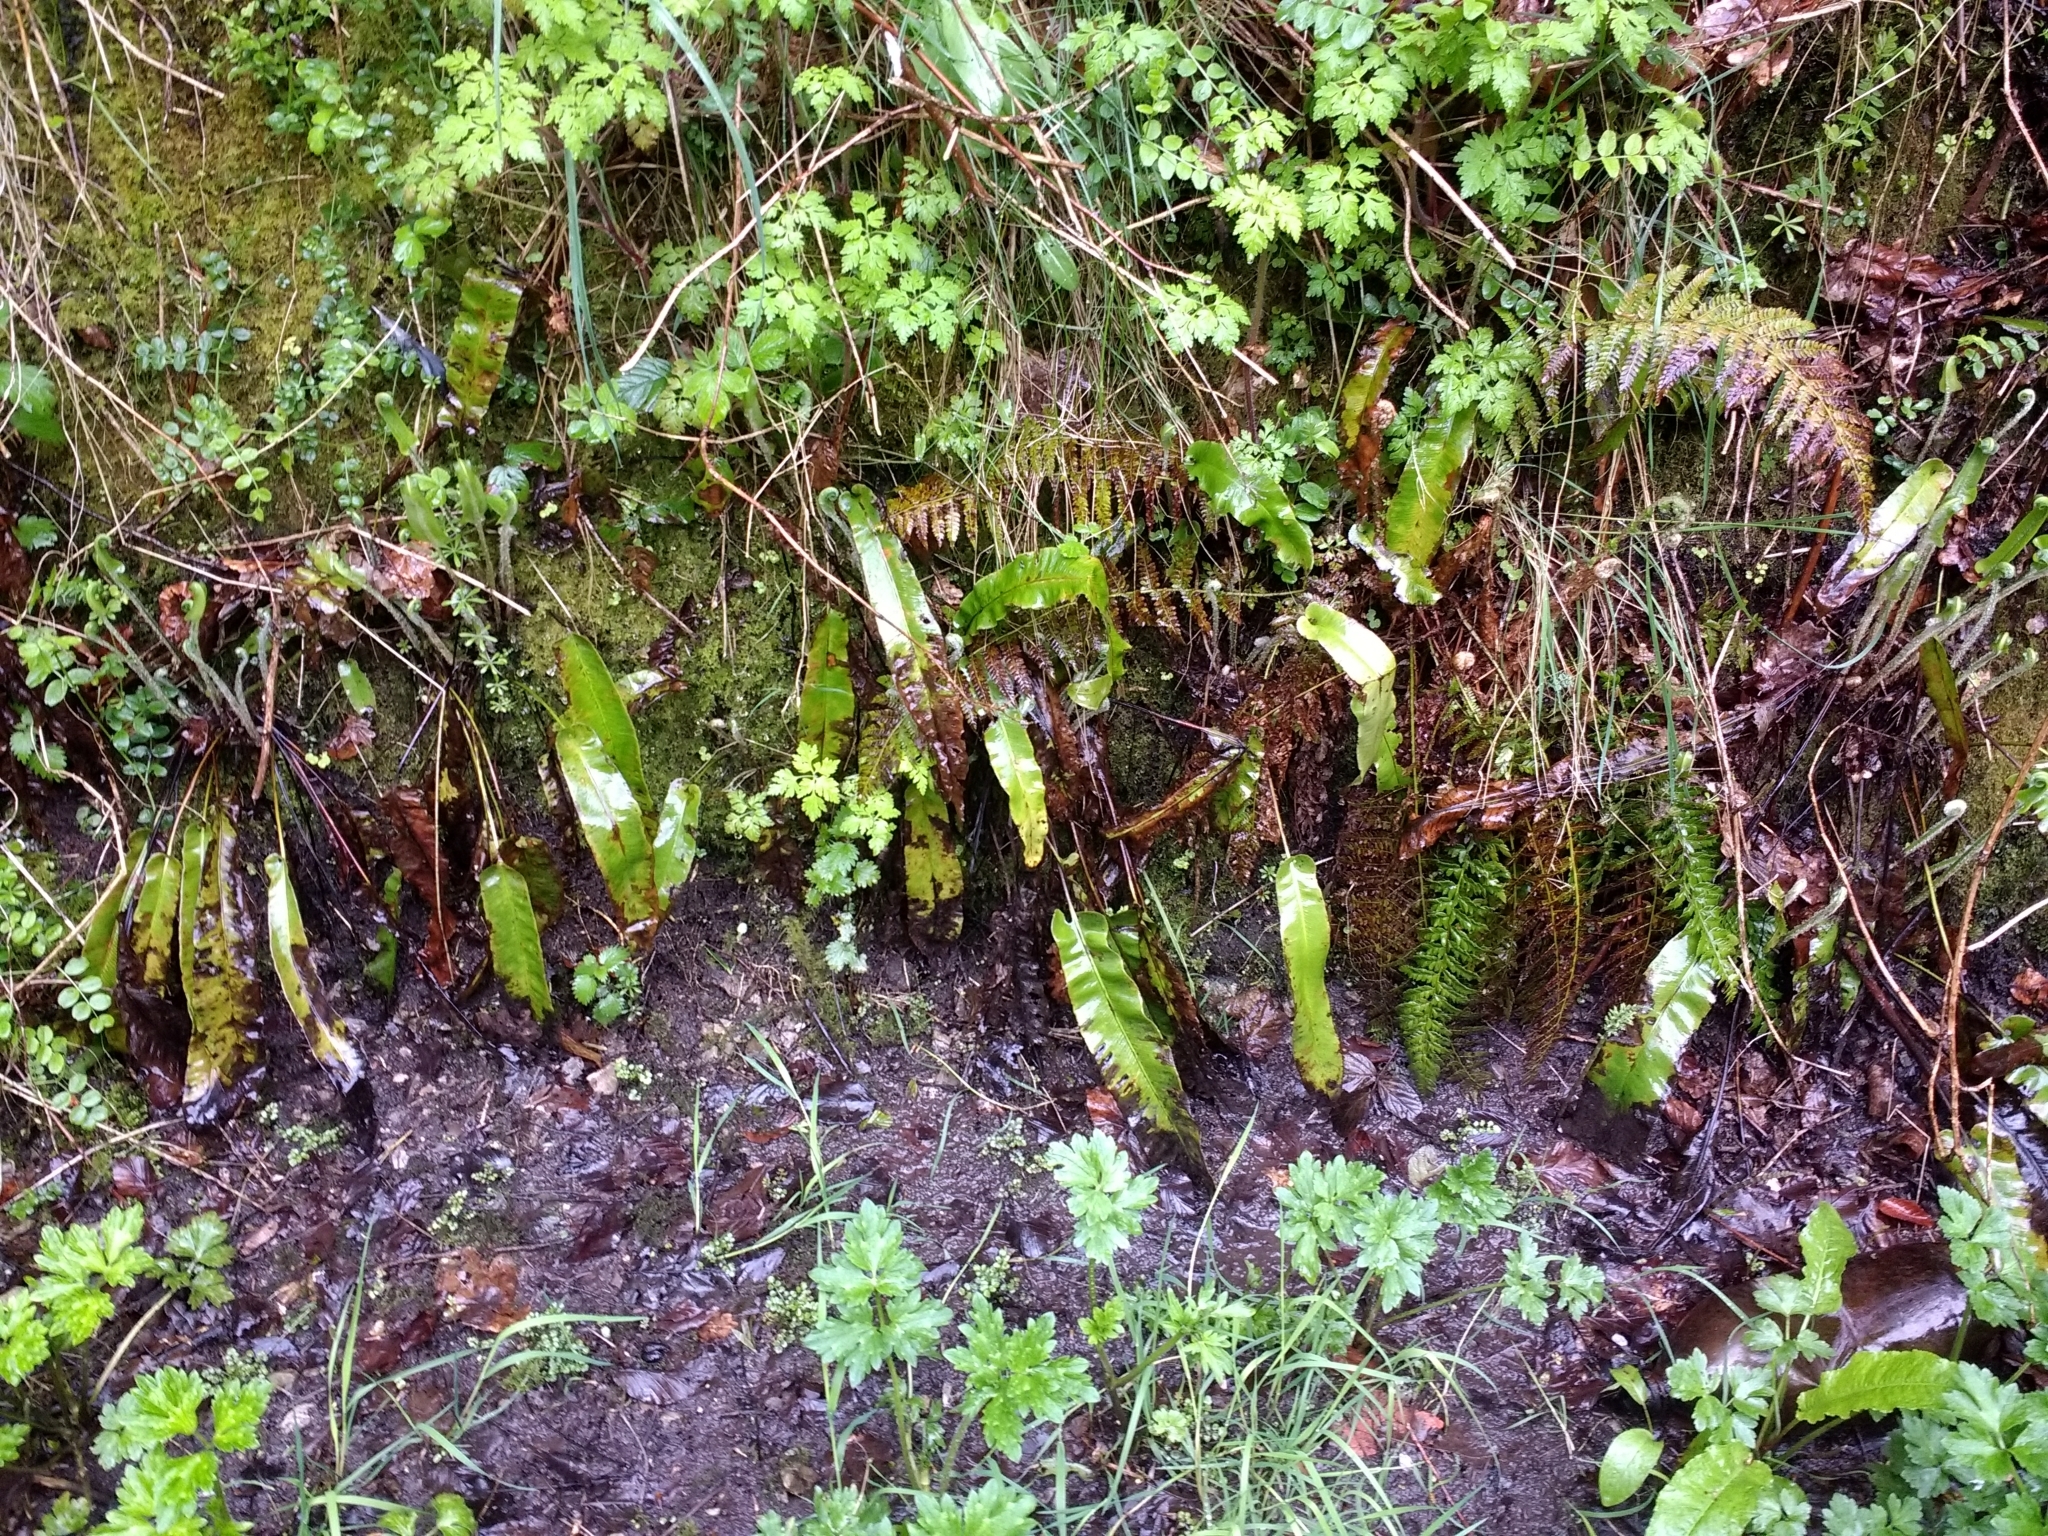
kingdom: Plantae
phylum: Tracheophyta
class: Polypodiopsida
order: Polypodiales
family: Aspleniaceae
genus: Asplenium
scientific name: Asplenium scolopendrium
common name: Hart's-tongue fern
